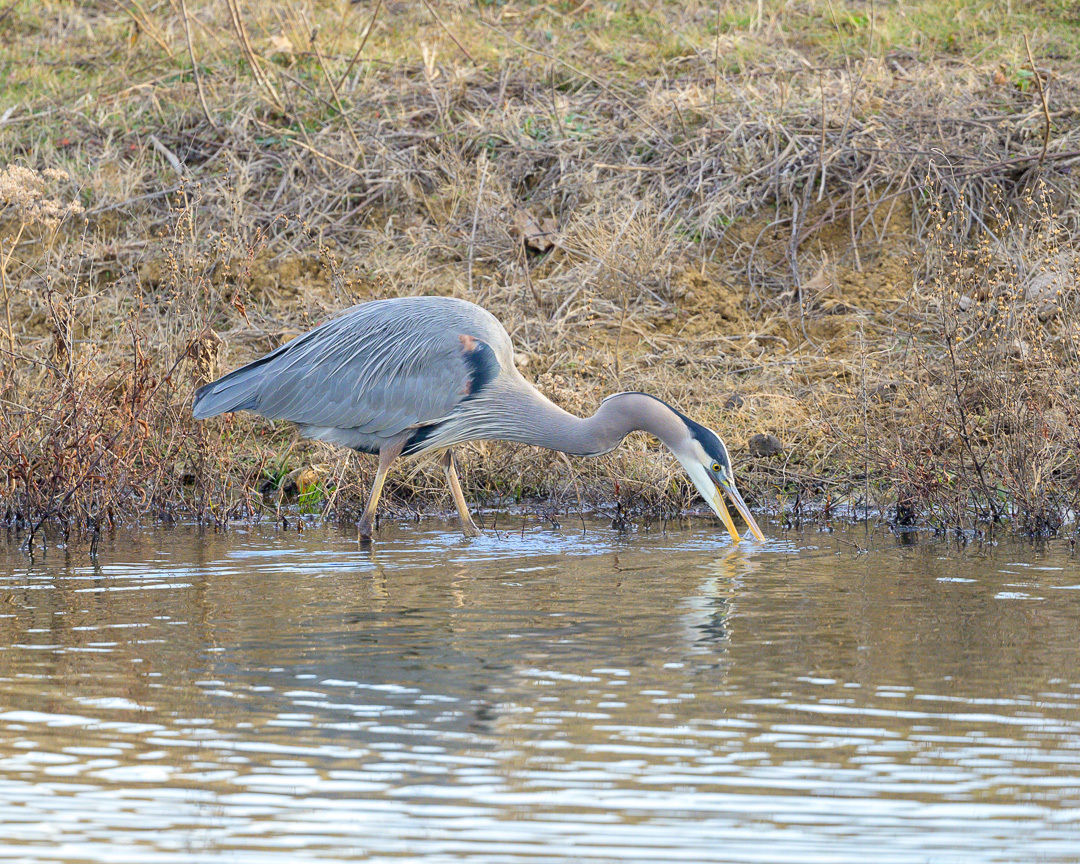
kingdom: Animalia
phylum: Chordata
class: Aves
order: Pelecaniformes
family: Ardeidae
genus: Ardea
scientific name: Ardea herodias
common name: Great blue heron
